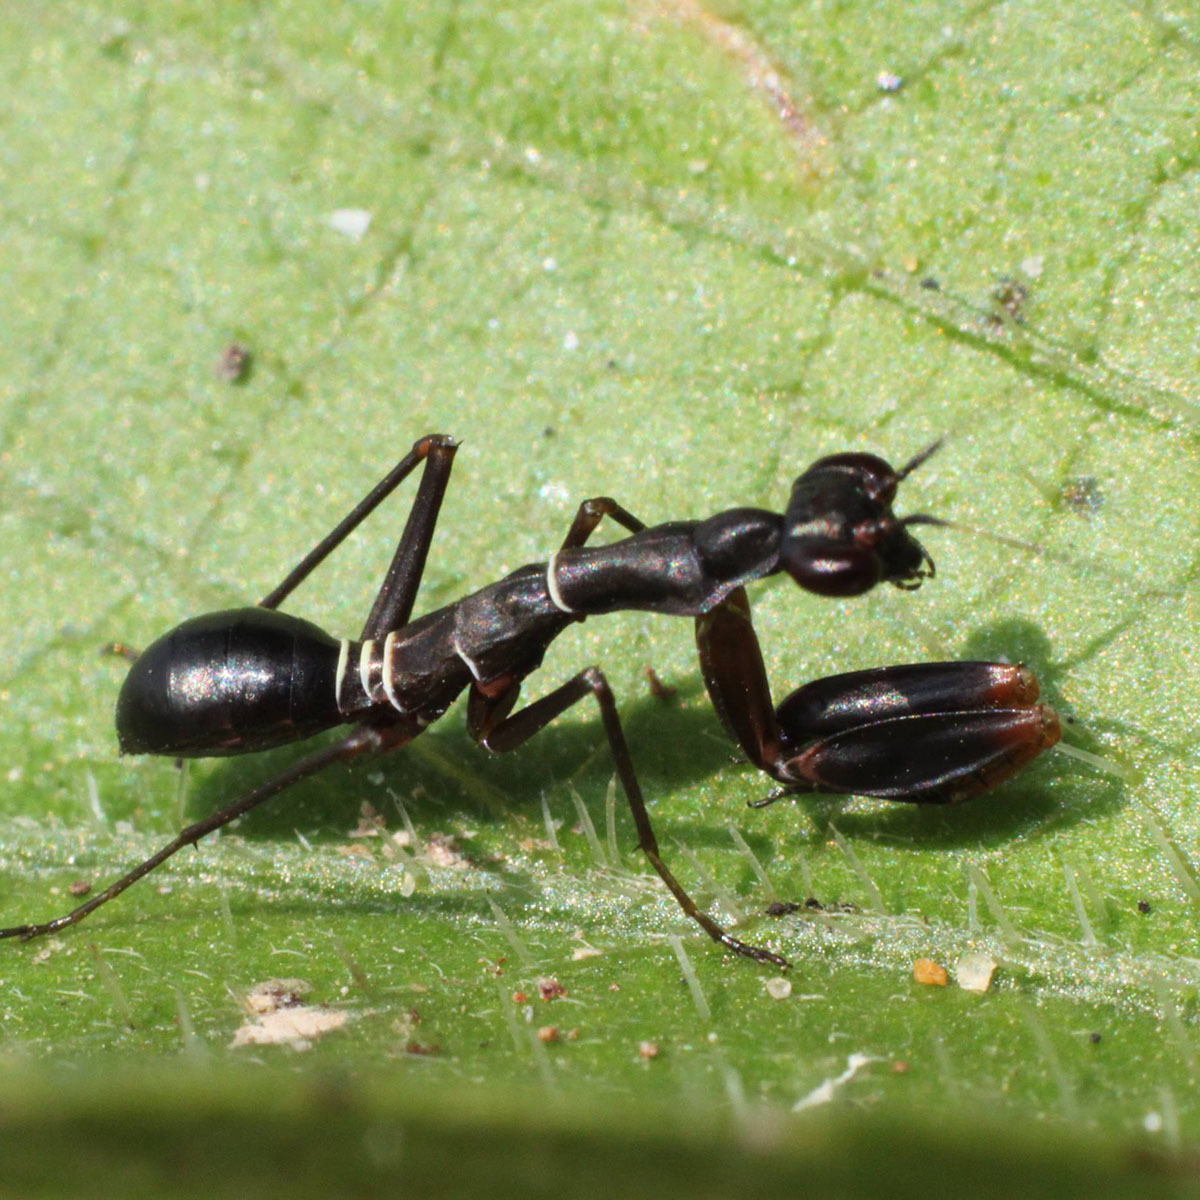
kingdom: Animalia
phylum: Arthropoda
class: Insecta
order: Mantodea
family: Hymenopodidae
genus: Odontomantis
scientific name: Odontomantis planiceps
